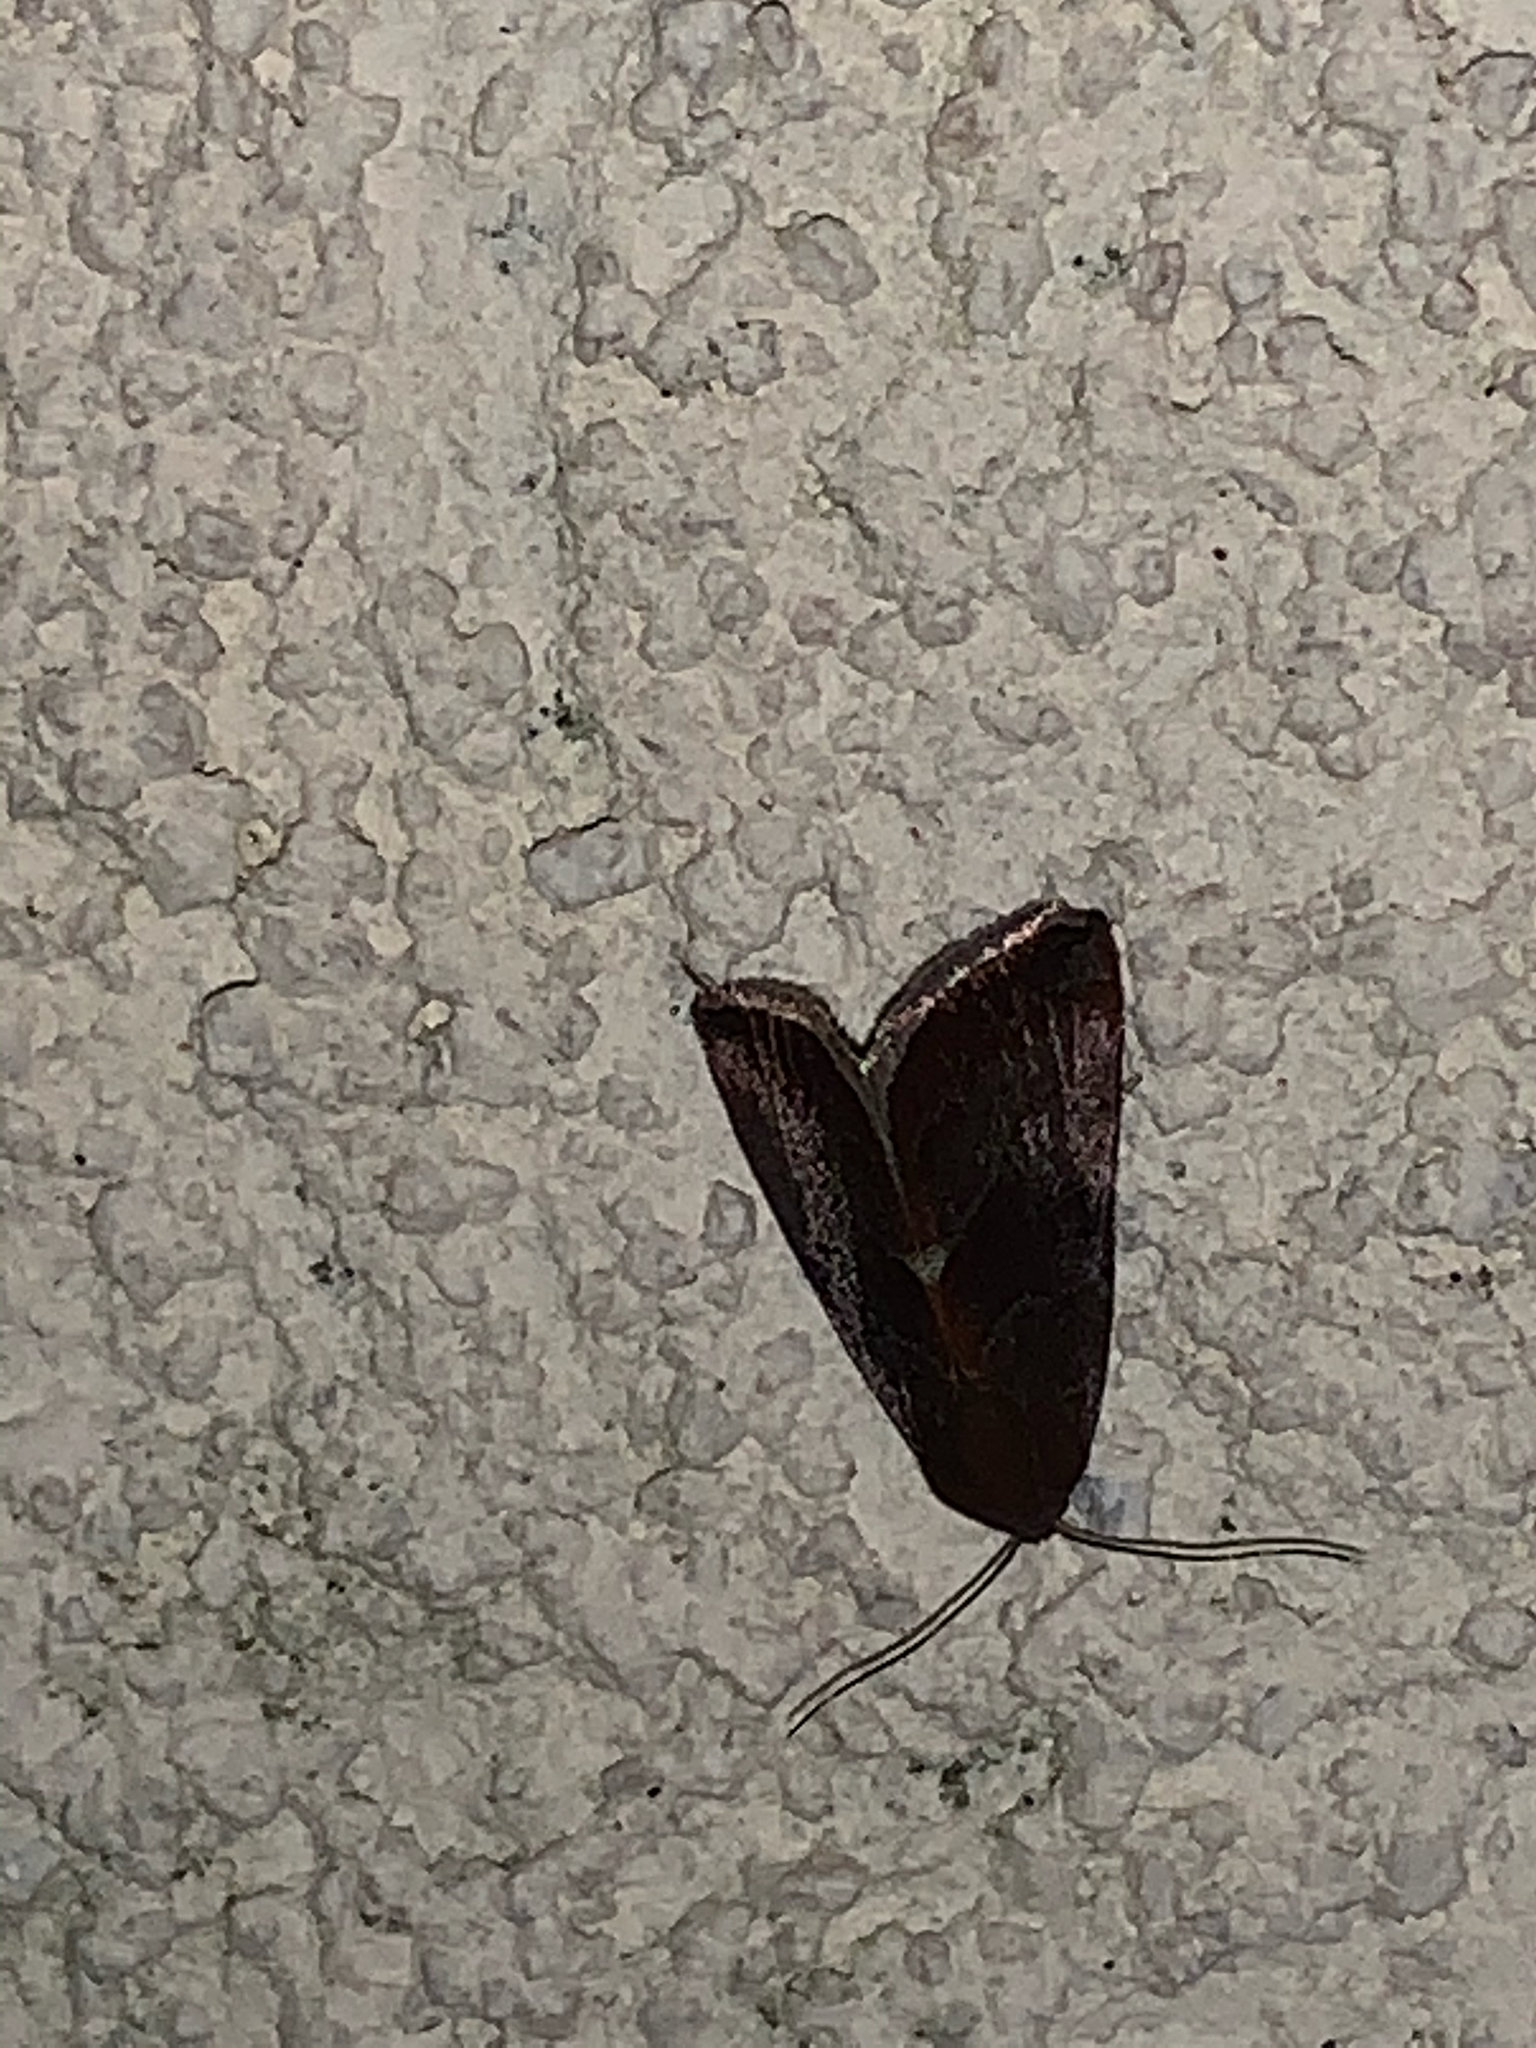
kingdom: Animalia
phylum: Arthropoda
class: Insecta
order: Lepidoptera
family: Noctuidae
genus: Galgula
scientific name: Galgula partita
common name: Wedgeling
